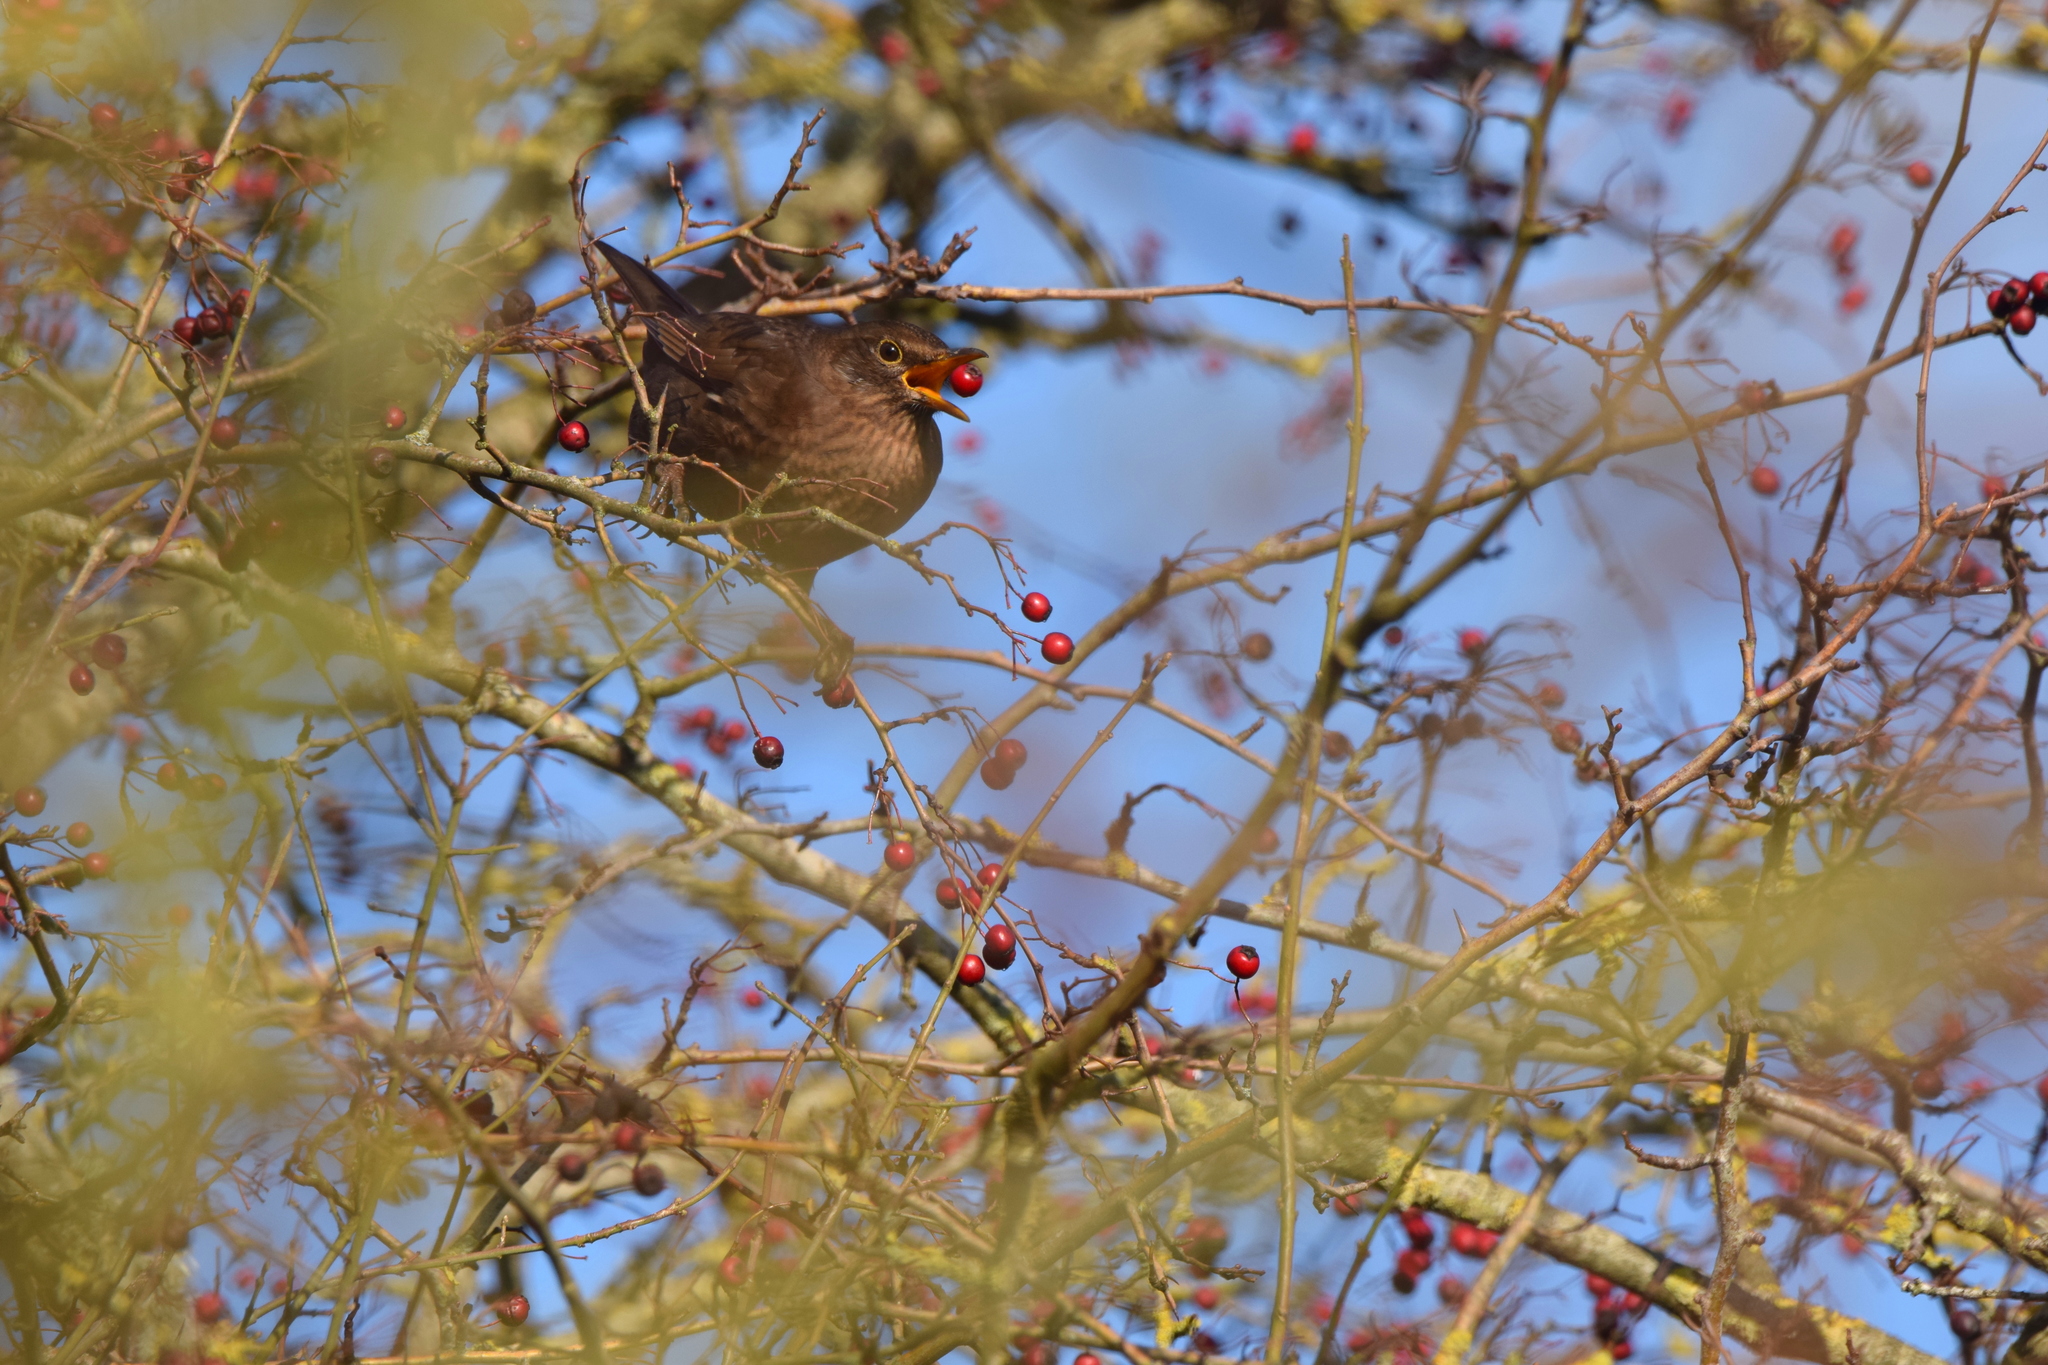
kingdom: Animalia
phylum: Chordata
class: Aves
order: Passeriformes
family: Turdidae
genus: Turdus
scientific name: Turdus merula
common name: Common blackbird
